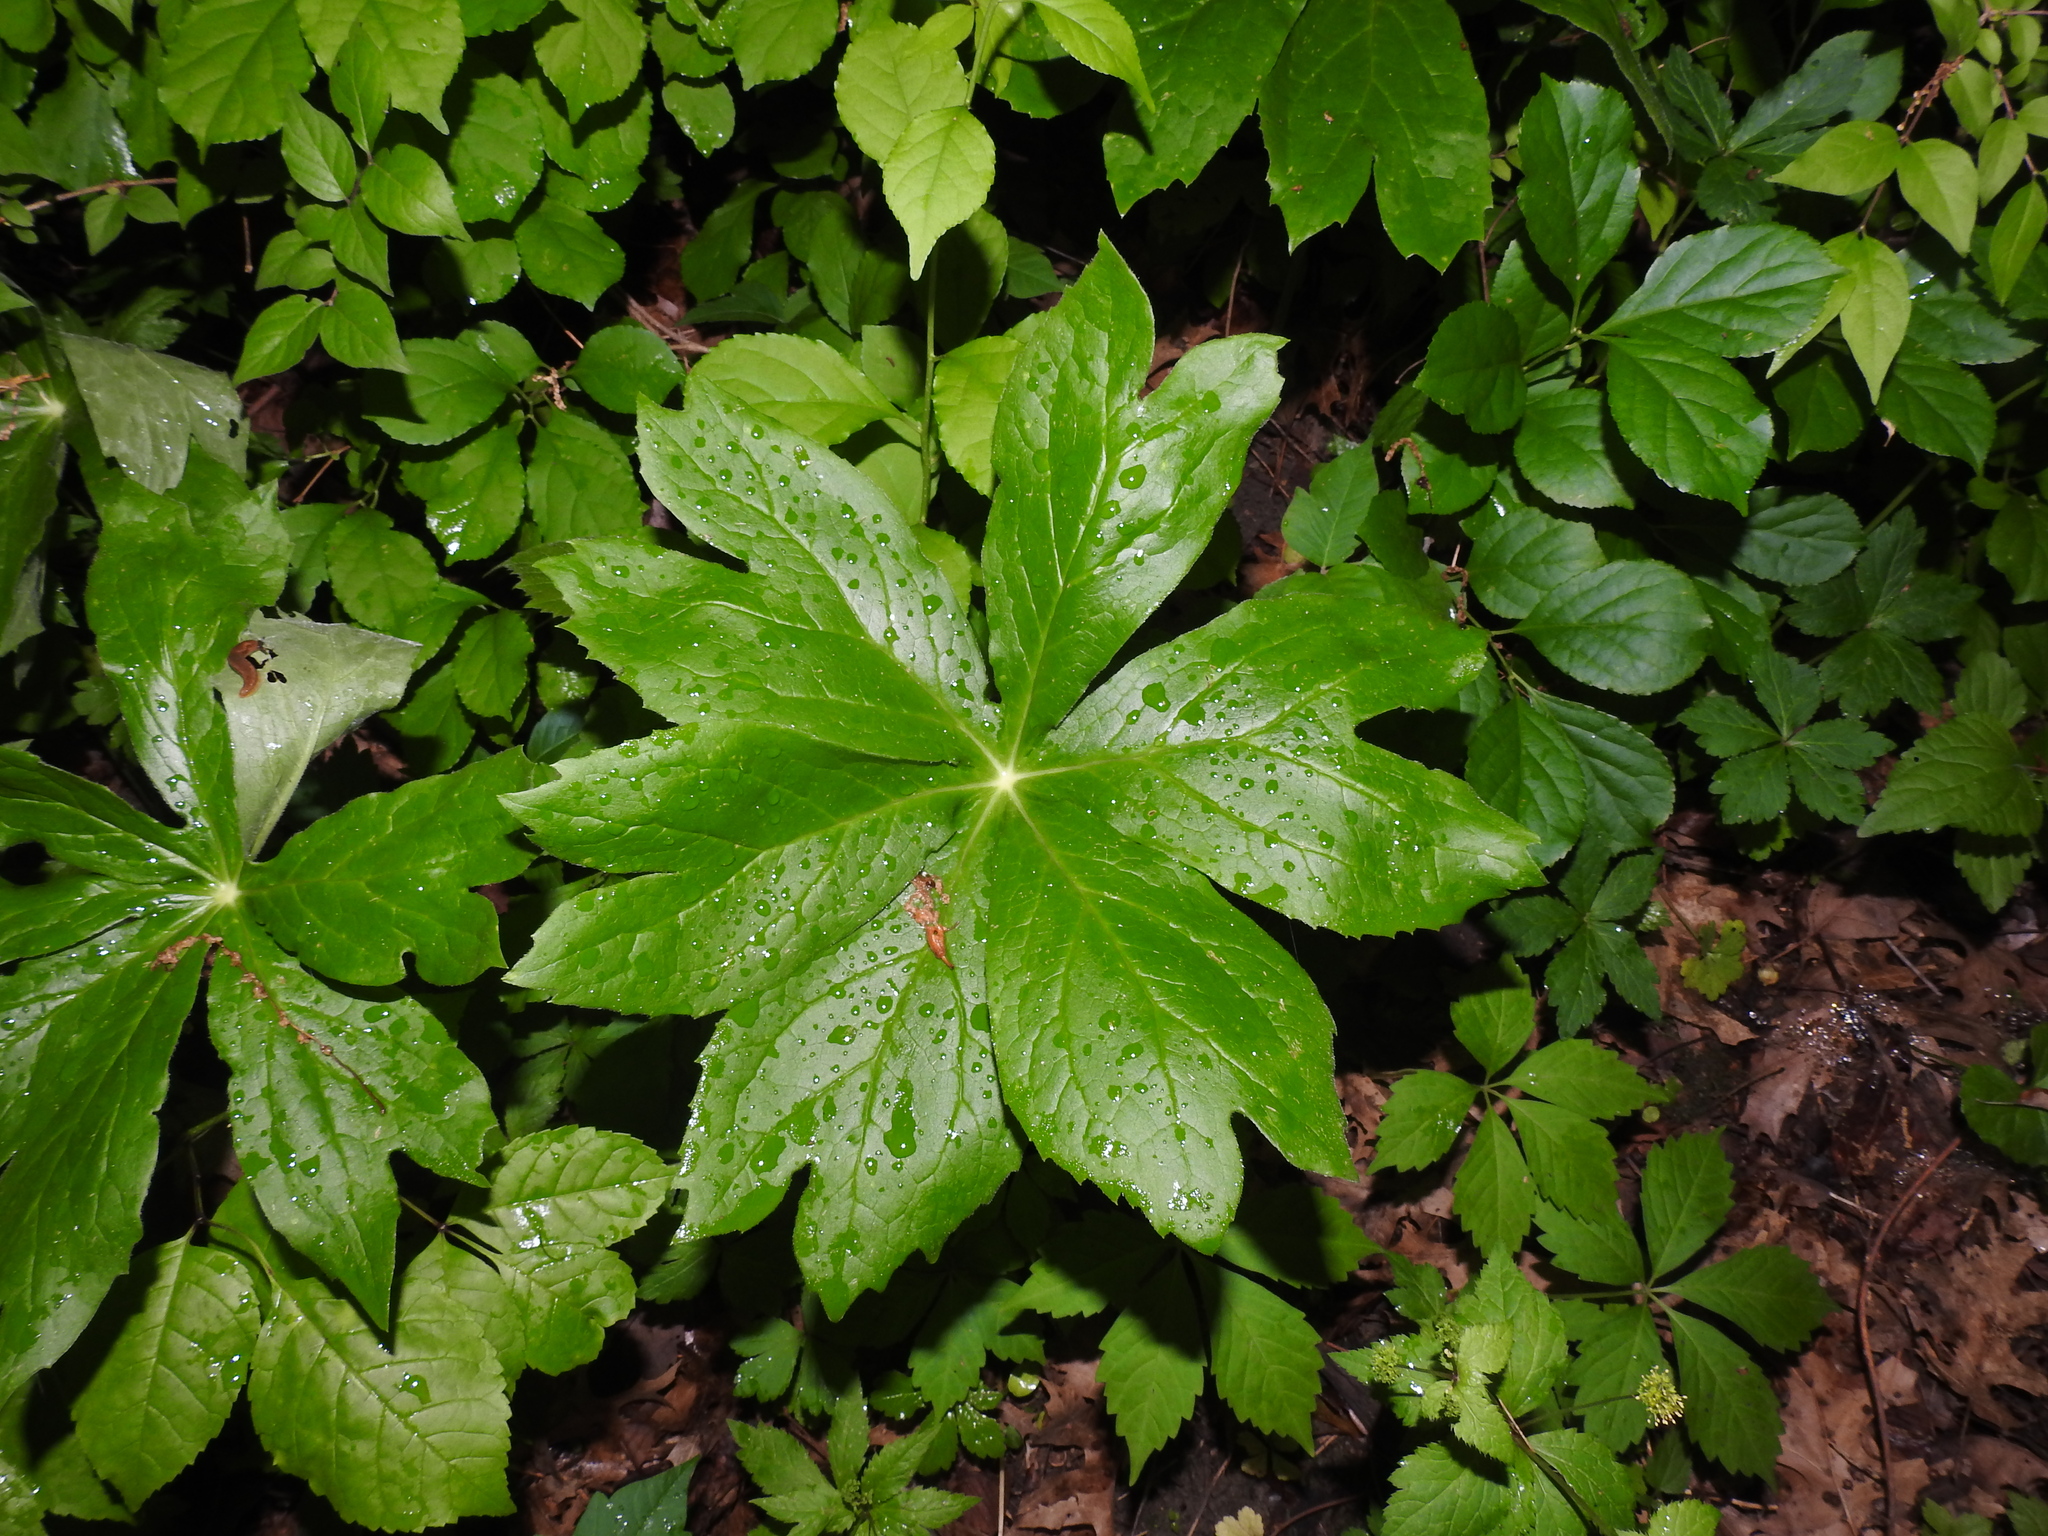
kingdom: Plantae
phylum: Tracheophyta
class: Magnoliopsida
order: Ranunculales
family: Berberidaceae
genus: Podophyllum
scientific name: Podophyllum peltatum
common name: Wild mandrake
